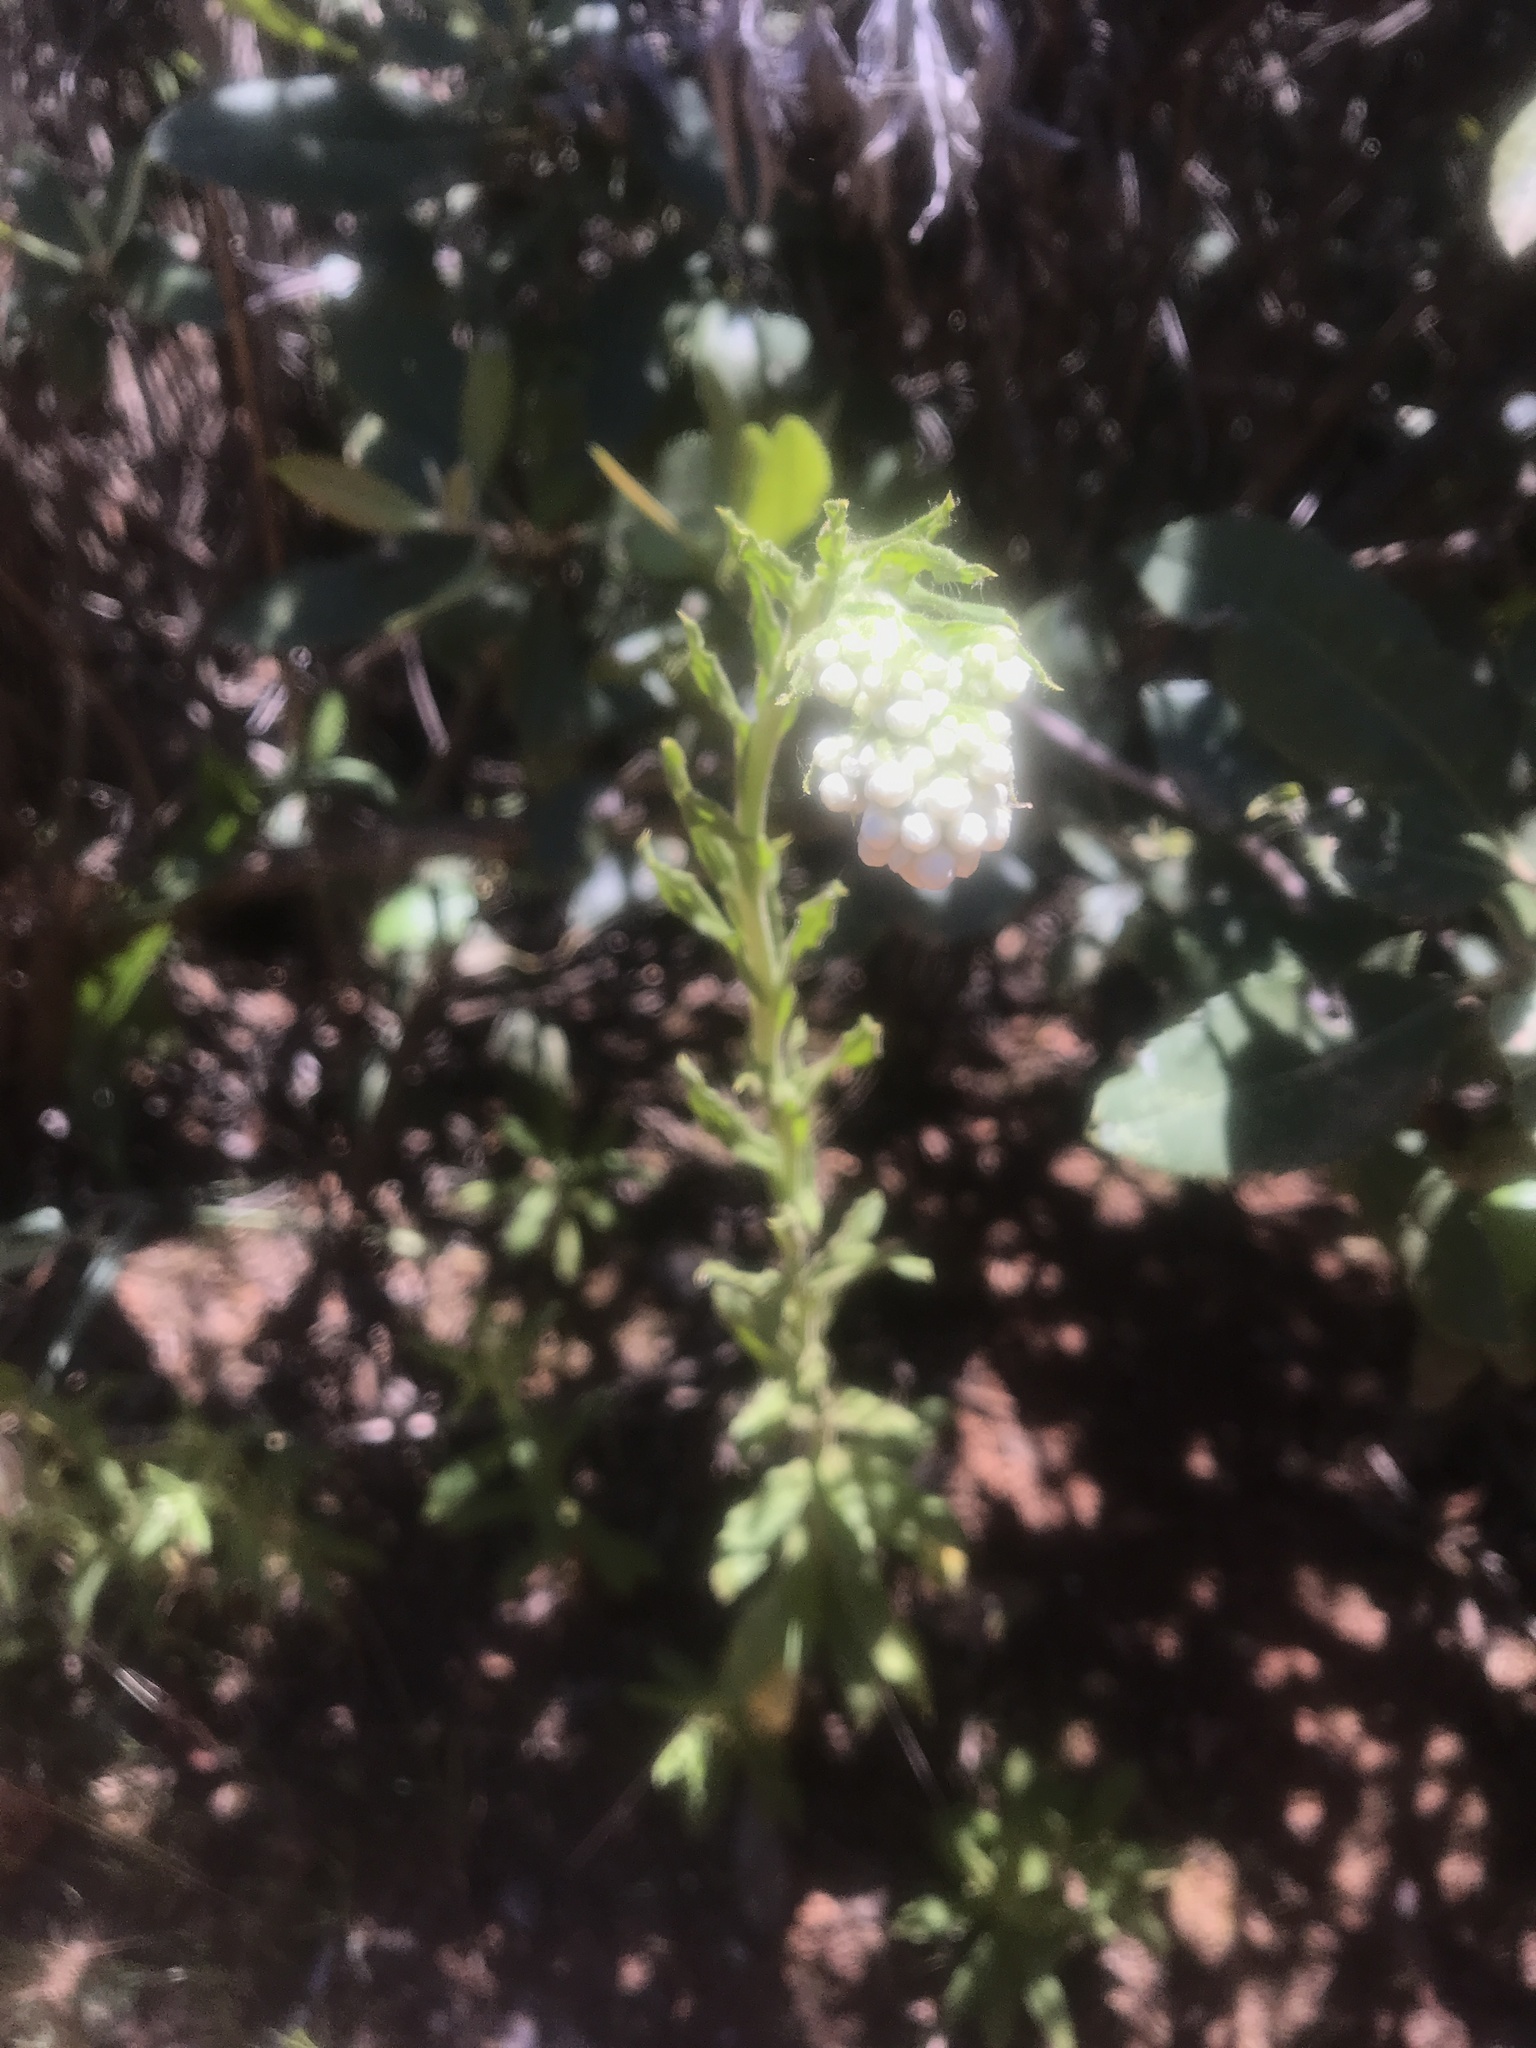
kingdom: Plantae
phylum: Tracheophyta
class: Magnoliopsida
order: Asterales
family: Asteraceae
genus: Pseudognaphalium
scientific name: Pseudognaphalium californicum
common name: California rabbit-tobacco
